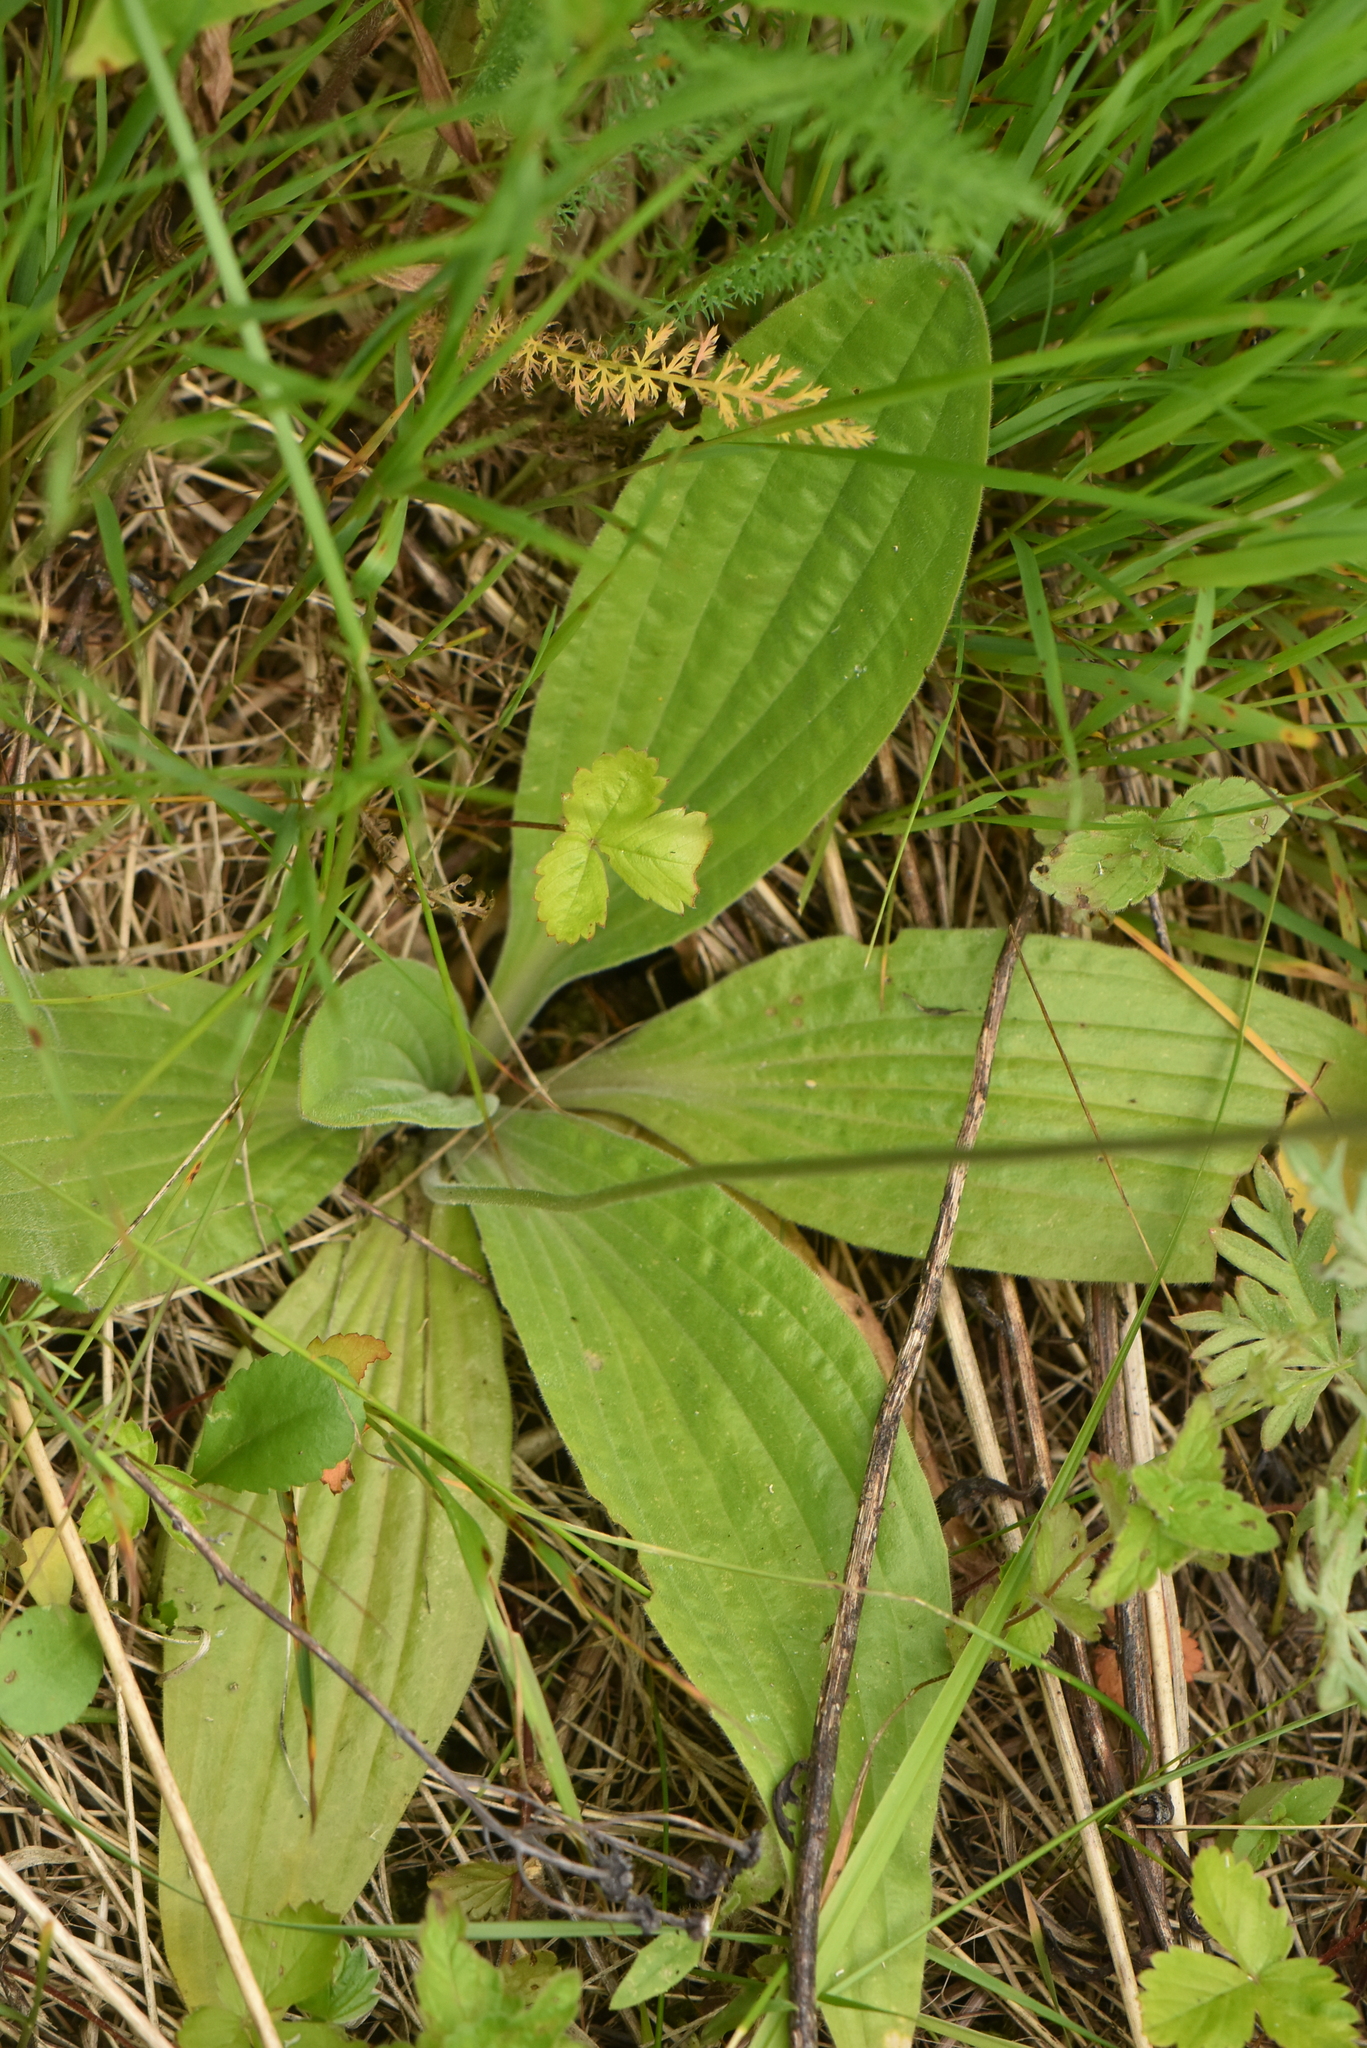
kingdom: Plantae
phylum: Tracheophyta
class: Magnoliopsida
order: Lamiales
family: Plantaginaceae
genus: Plantago
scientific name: Plantago media
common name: Hoary plantain
